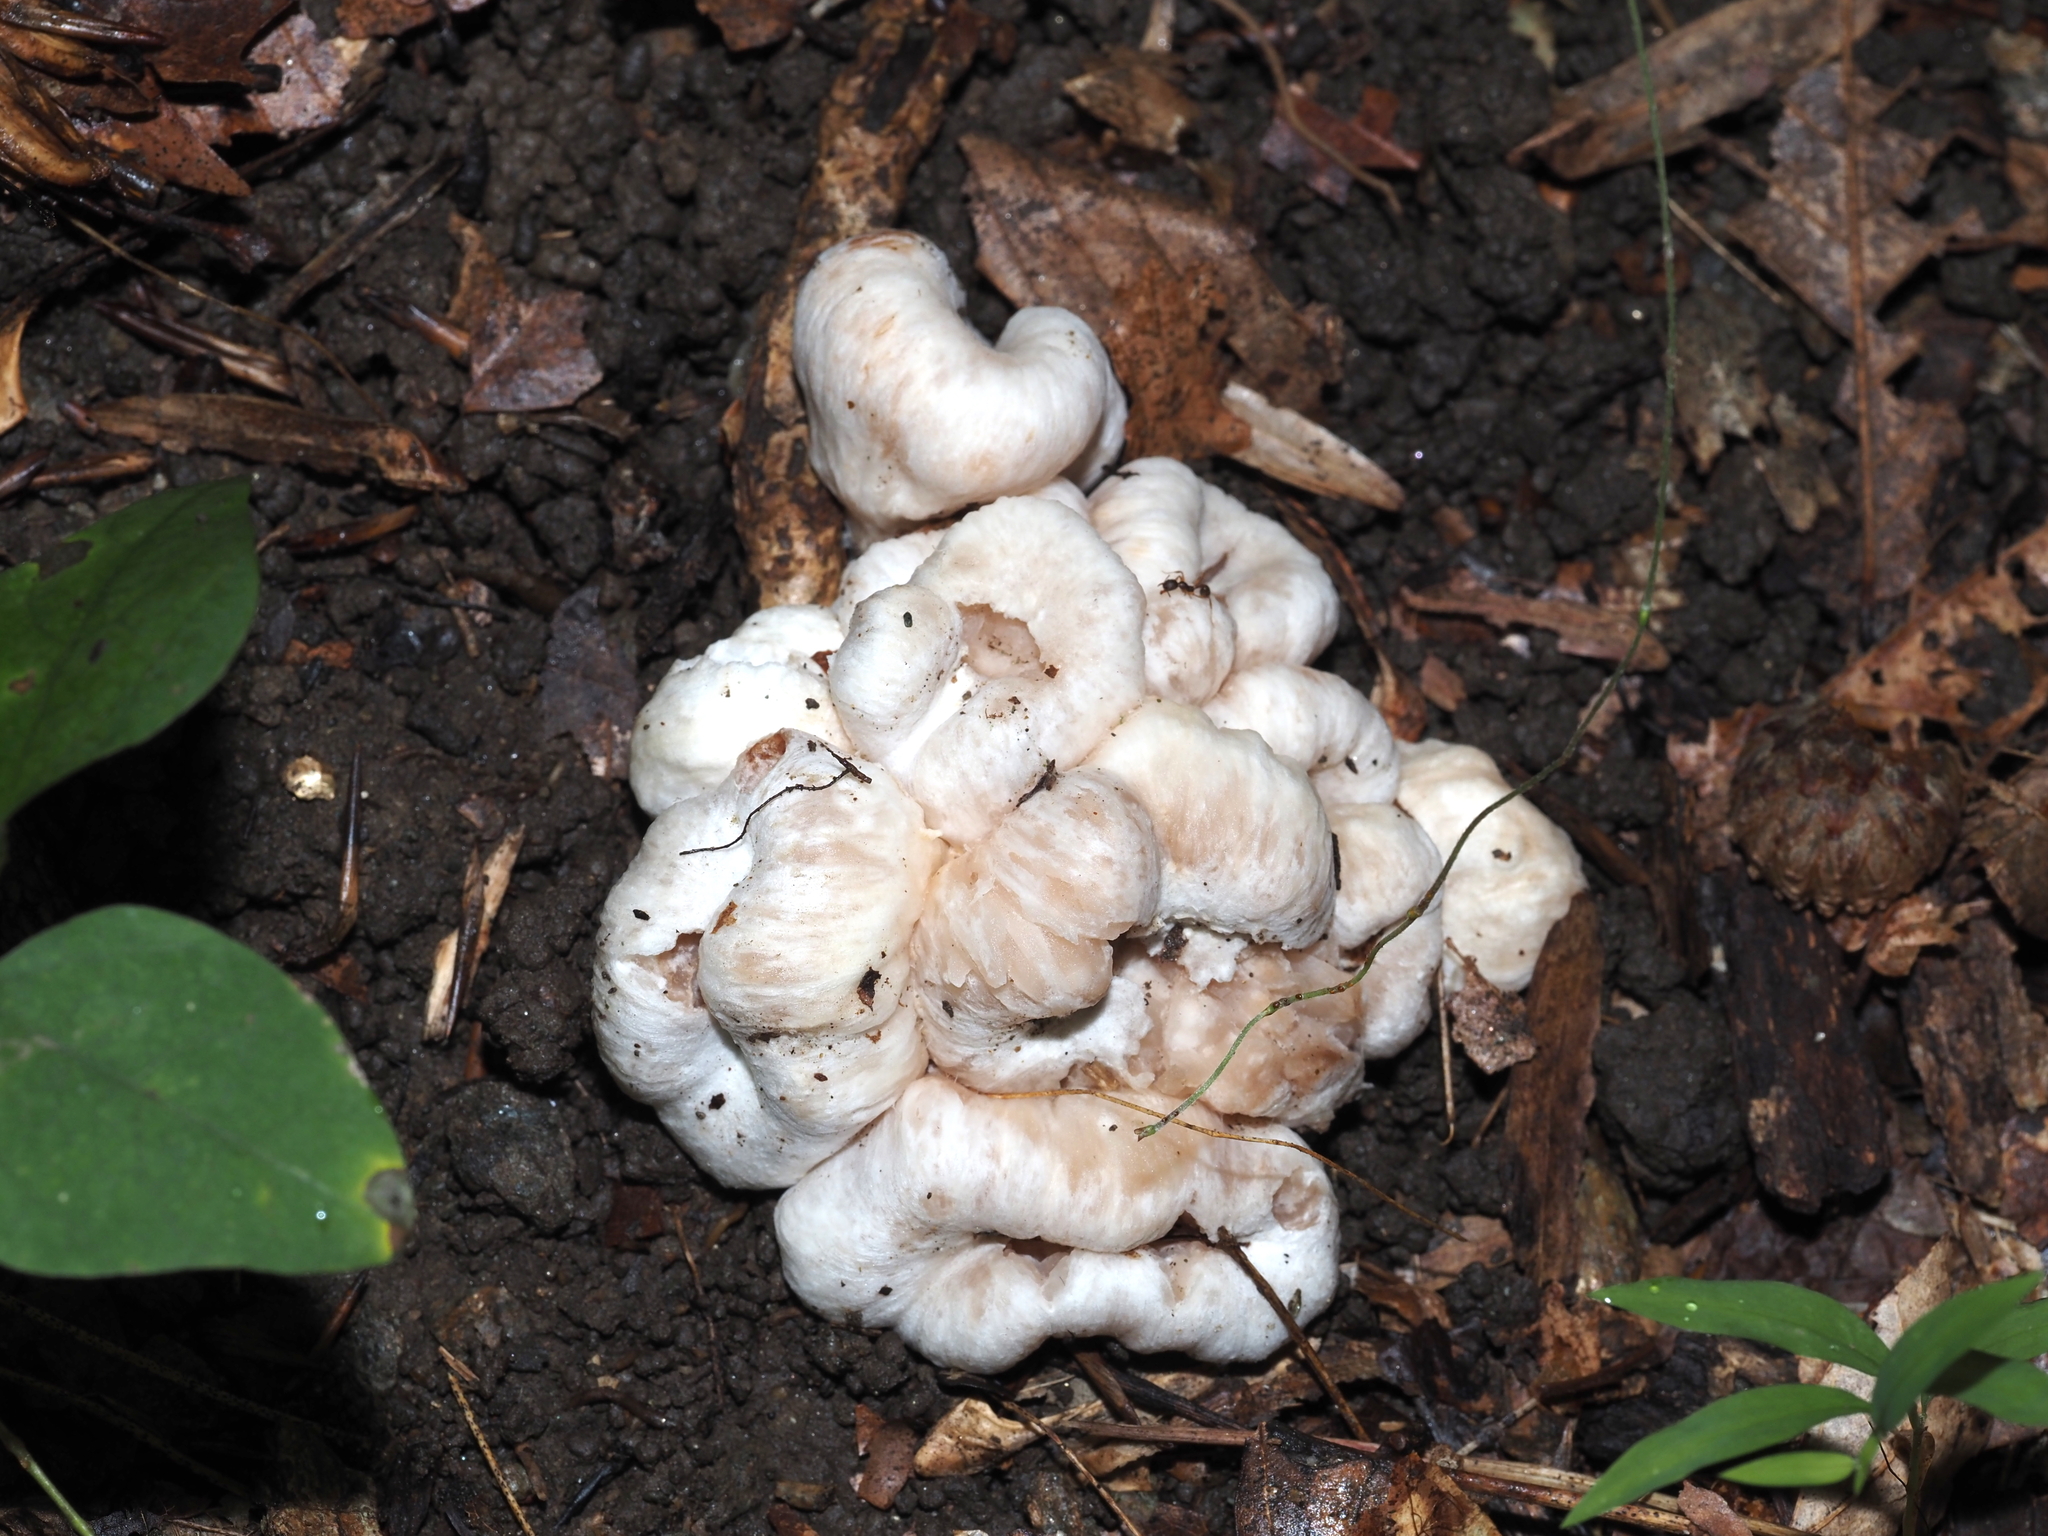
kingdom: Fungi
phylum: Basidiomycota
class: Agaricomycetes
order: Agaricales
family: Entolomataceae
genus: Entoloma
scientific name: Entoloma abortivum
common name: Aborted entoloma
